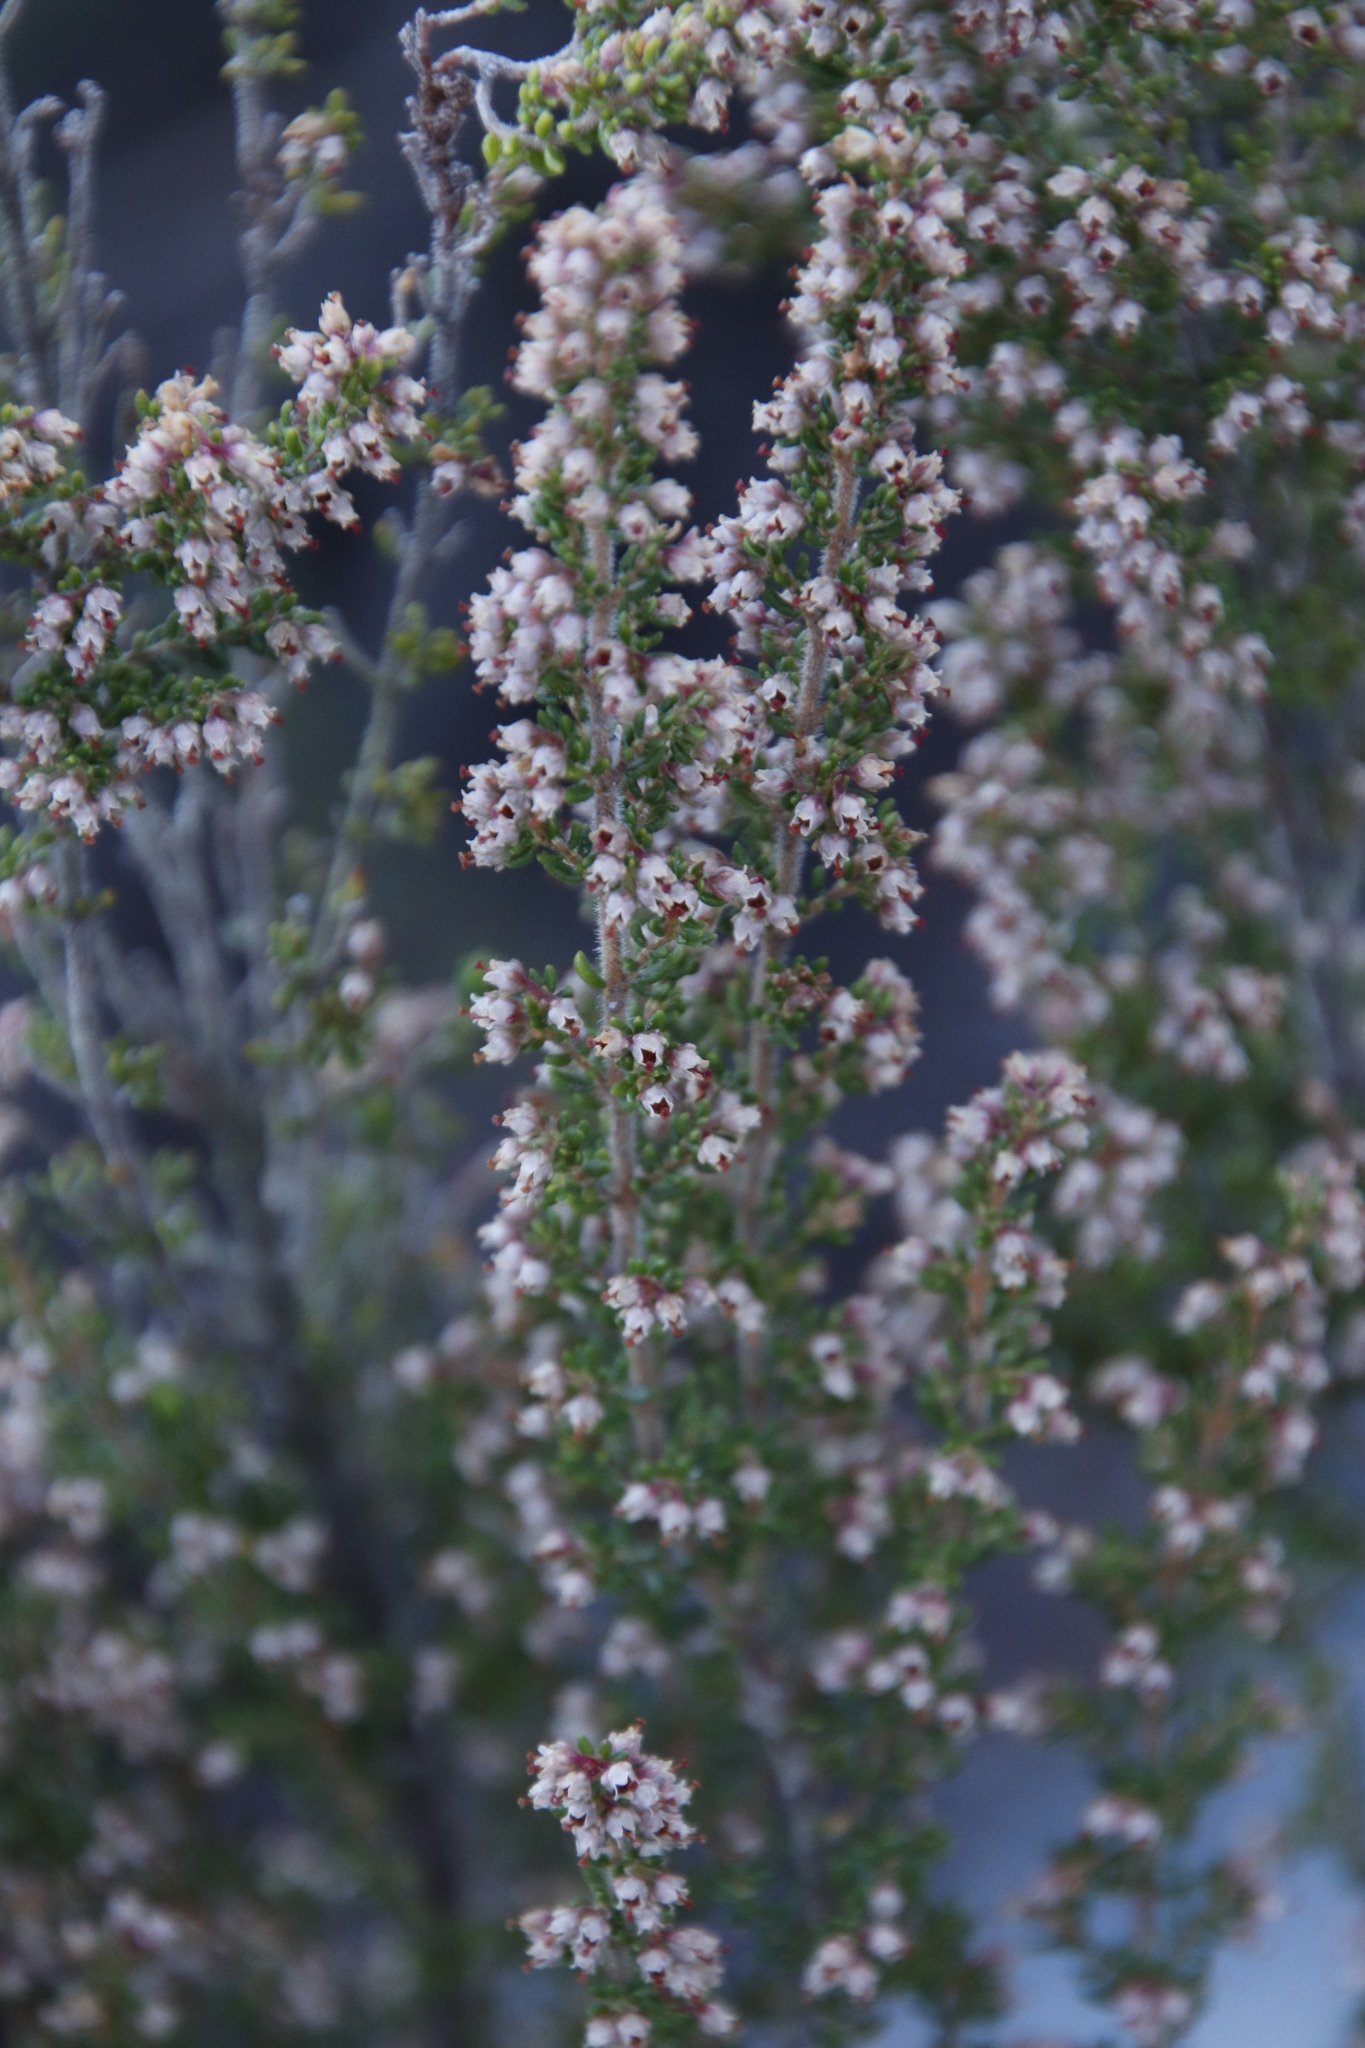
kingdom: Plantae
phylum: Tracheophyta
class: Magnoliopsida
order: Ericales
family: Ericaceae
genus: Erica
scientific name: Erica hispidula
